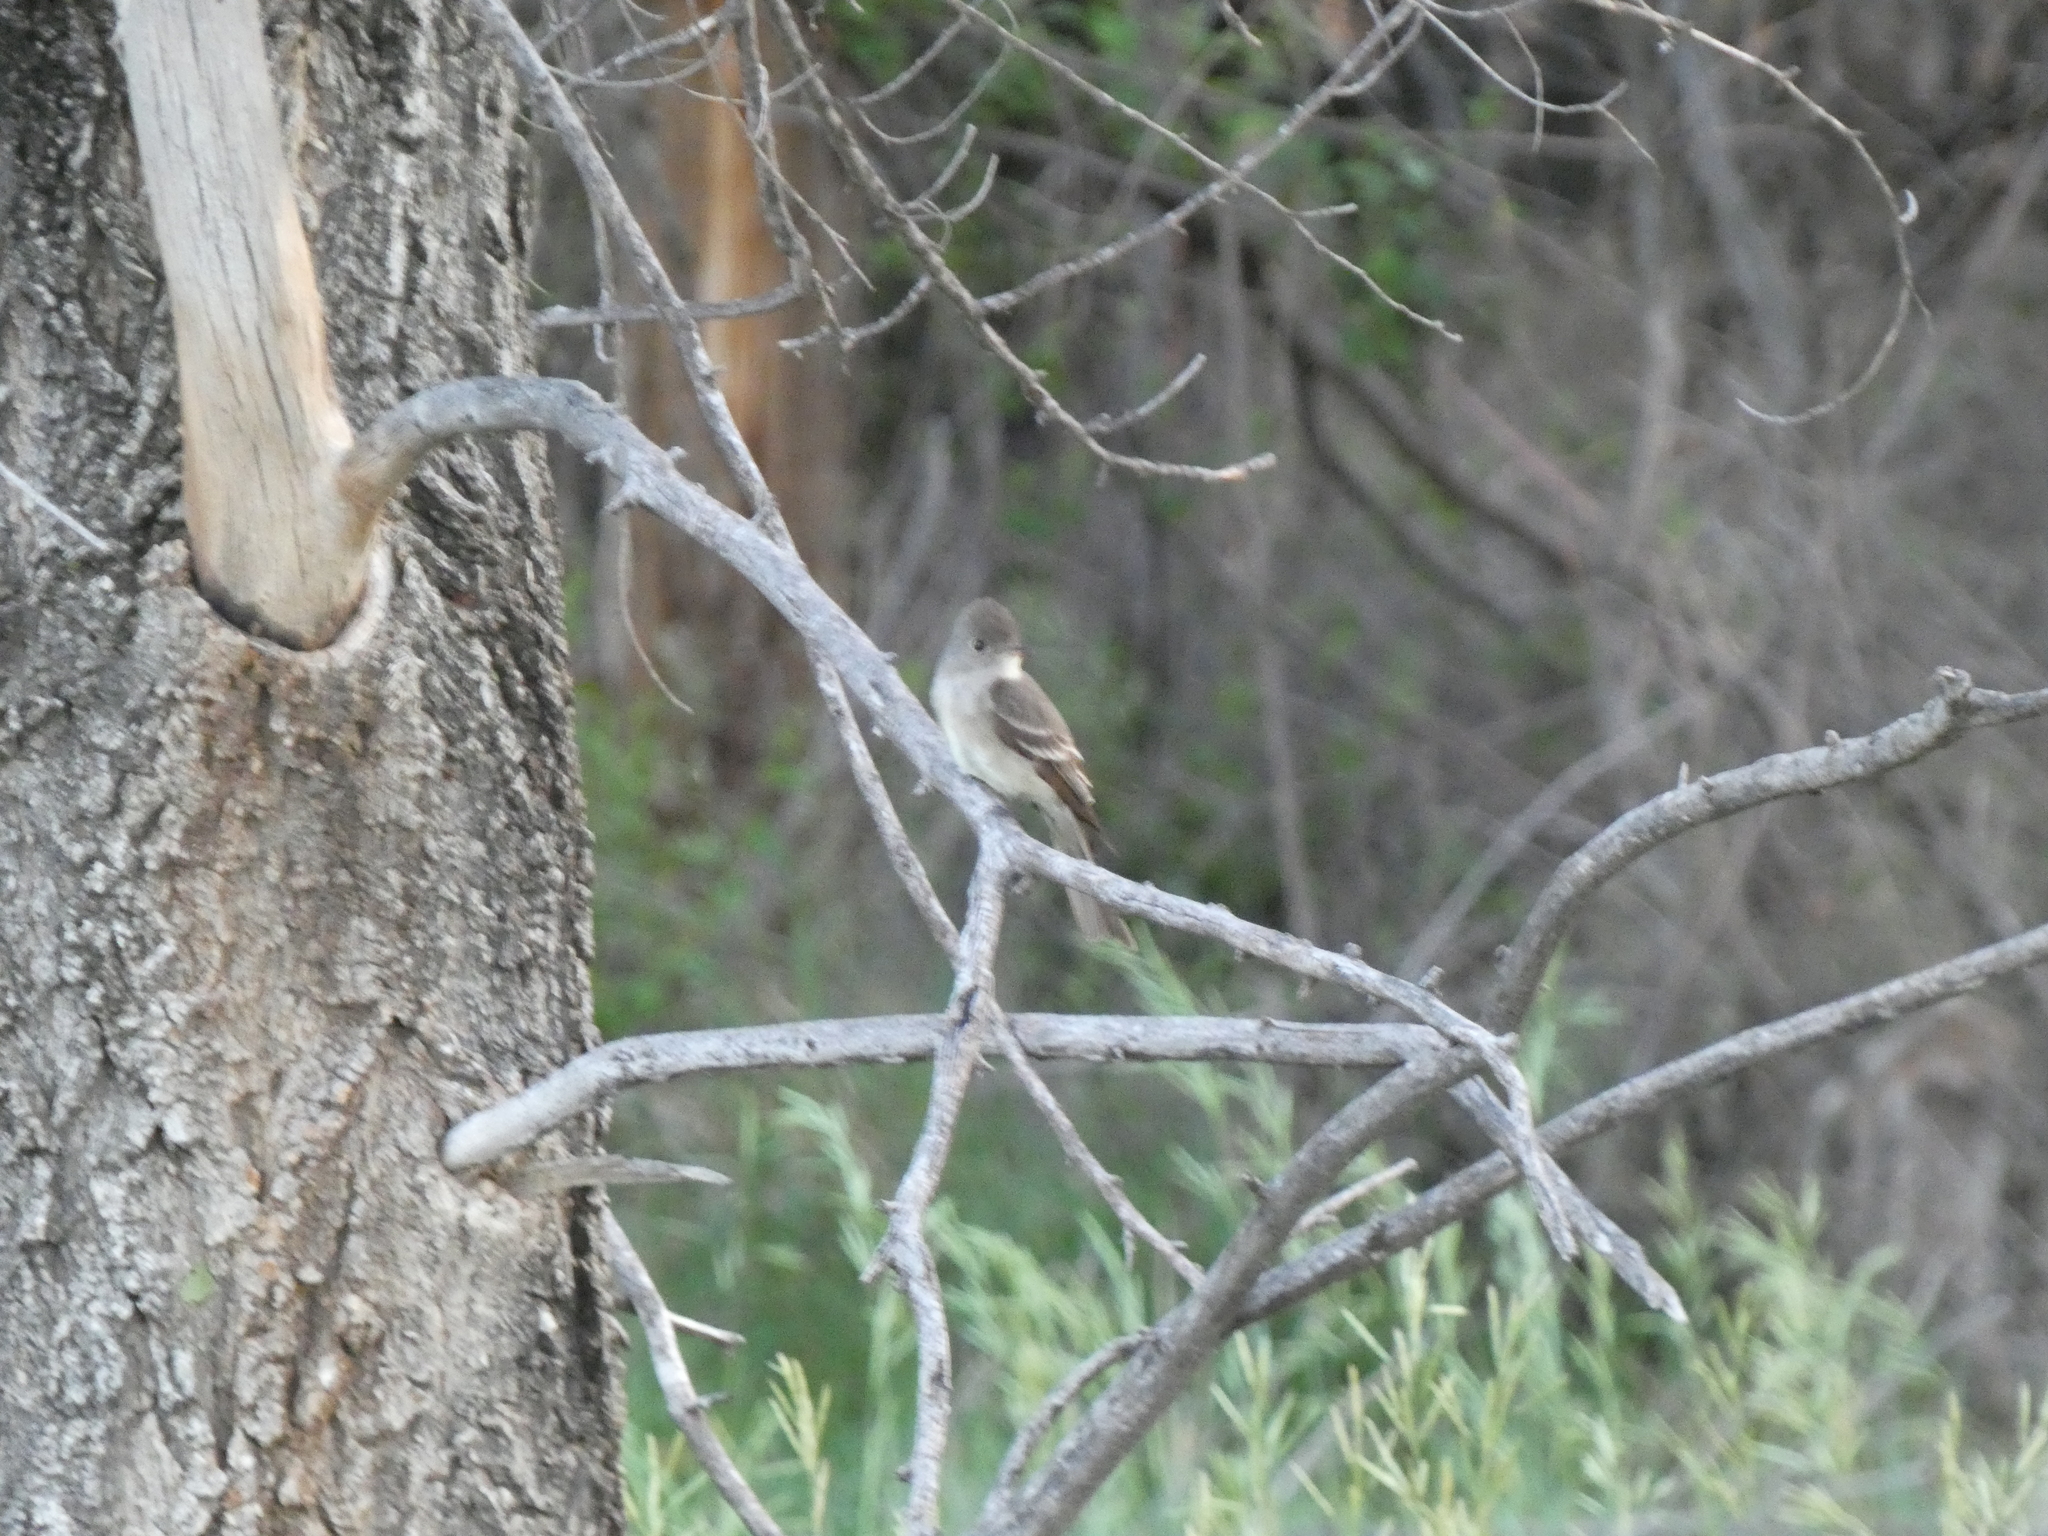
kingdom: Animalia
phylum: Chordata
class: Aves
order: Passeriformes
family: Tyrannidae
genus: Contopus
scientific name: Contopus sordidulus
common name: Western wood-pewee
